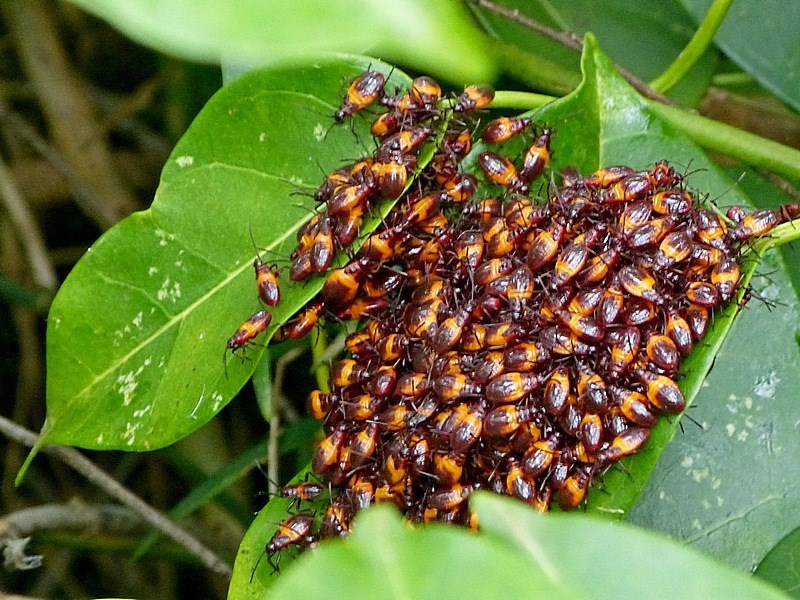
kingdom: Animalia
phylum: Arthropoda
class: Insecta
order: Hemiptera
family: Lygaeidae
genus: Oncopeltus
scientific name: Oncopeltus sordidus
